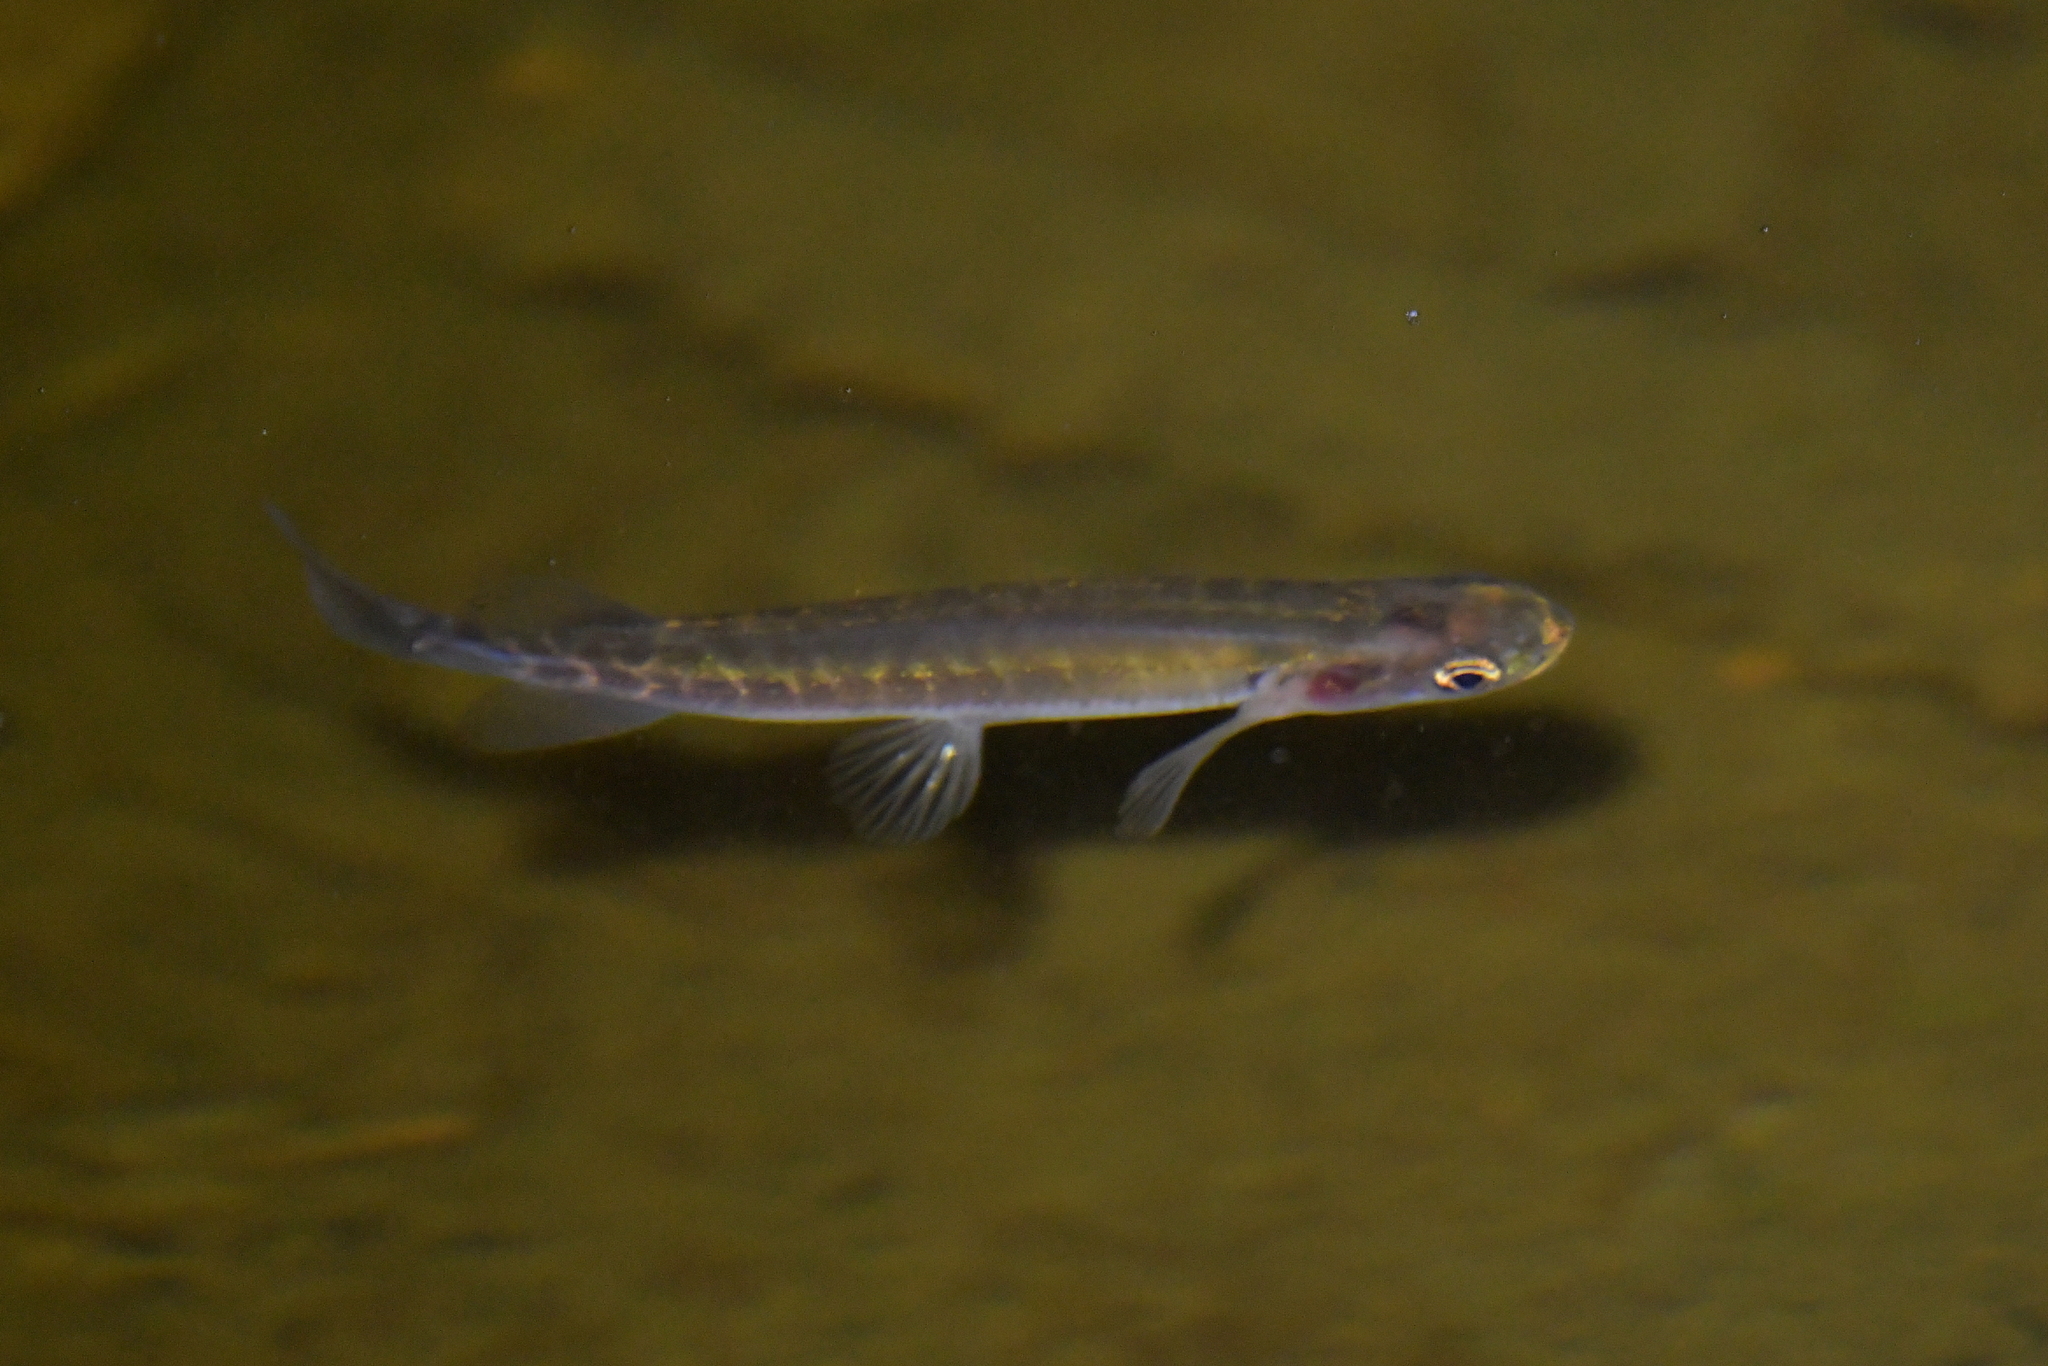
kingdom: Animalia
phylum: Chordata
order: Osmeriformes
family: Galaxiidae
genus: Galaxias
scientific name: Galaxias fasciatus
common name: Banded kokopu
